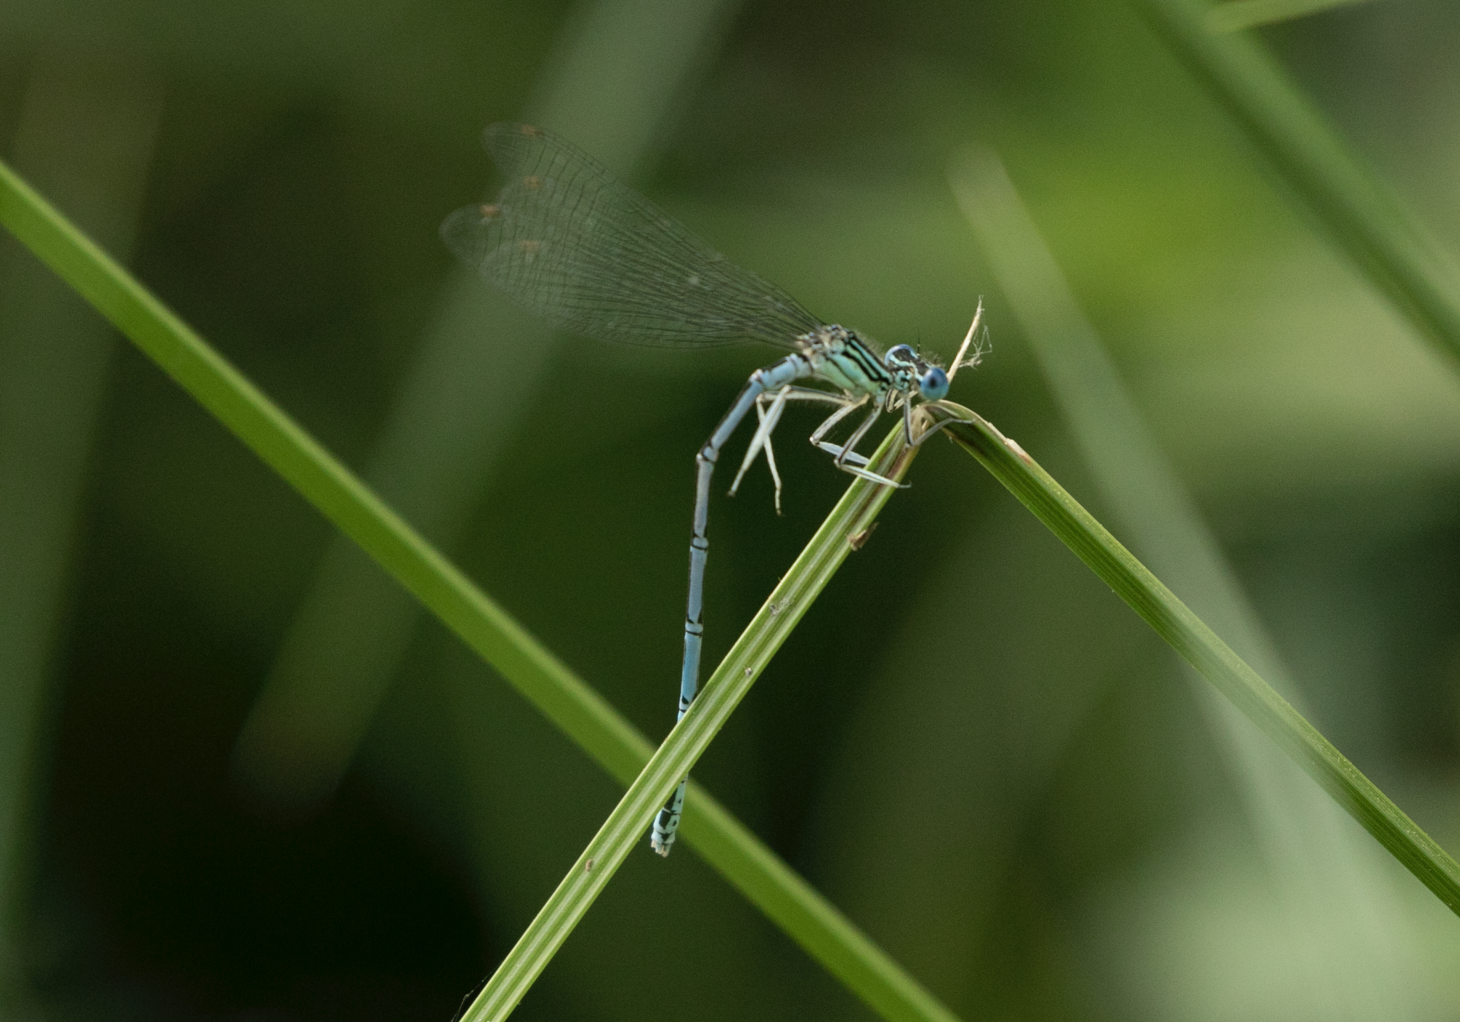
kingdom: Animalia
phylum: Arthropoda
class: Insecta
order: Odonata
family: Platycnemididae
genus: Platycnemis
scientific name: Platycnemis pennipes
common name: White-legged damselfly
